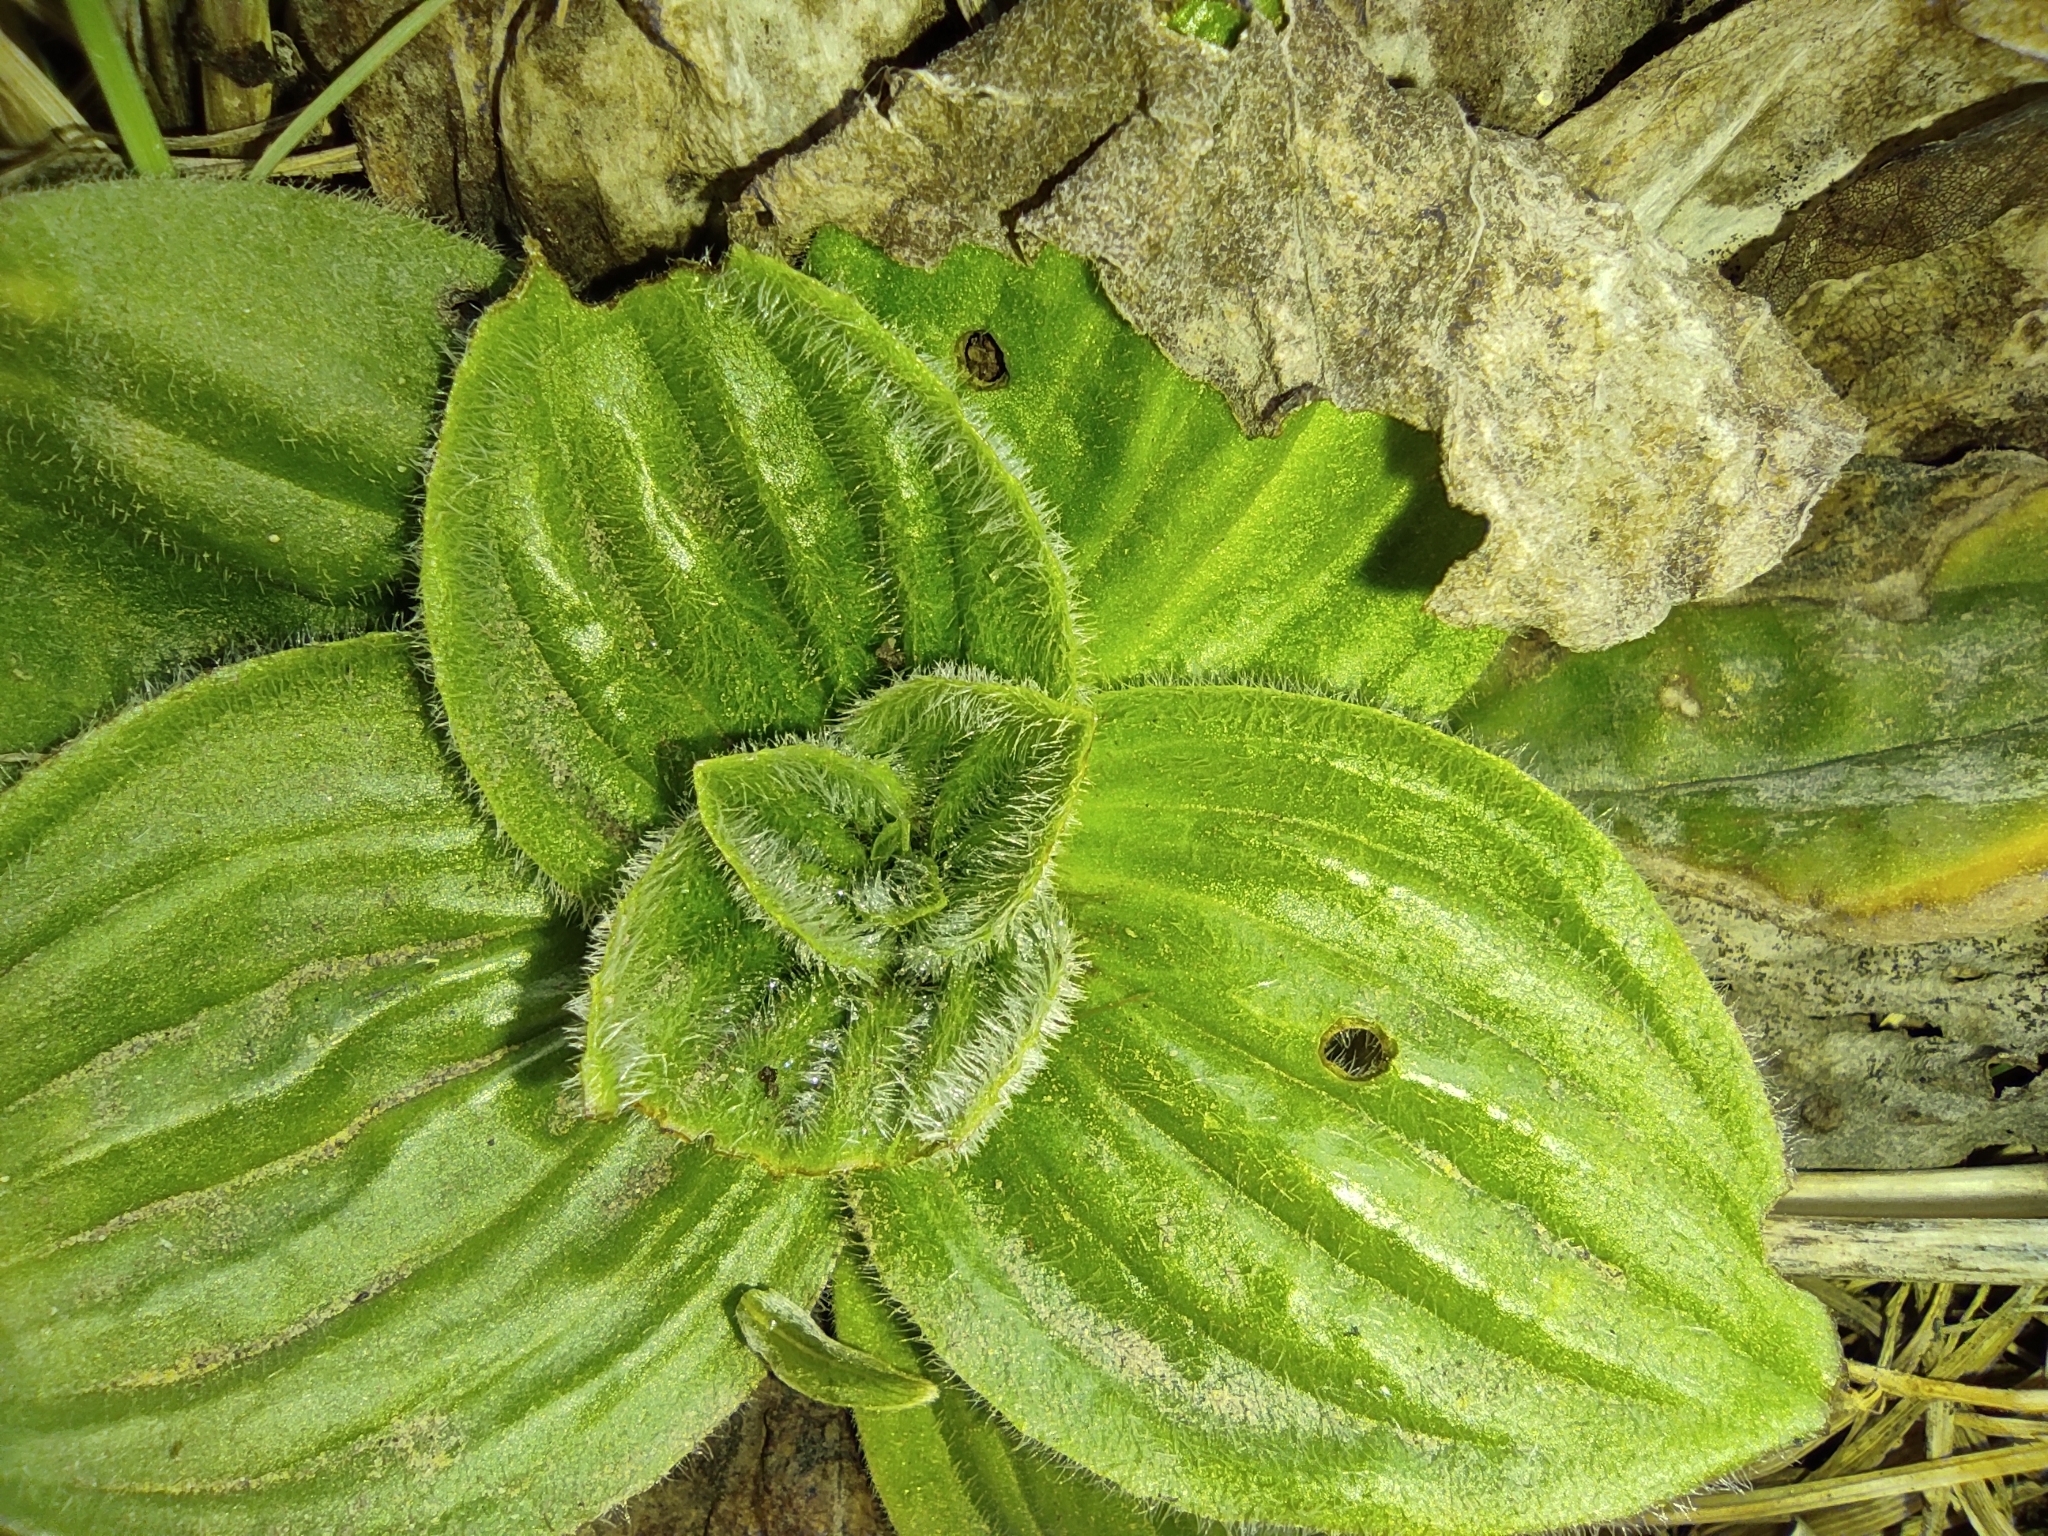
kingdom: Plantae
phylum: Tracheophyta
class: Magnoliopsida
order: Lamiales
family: Plantaginaceae
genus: Plantago
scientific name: Plantago media
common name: Hoary plantain
